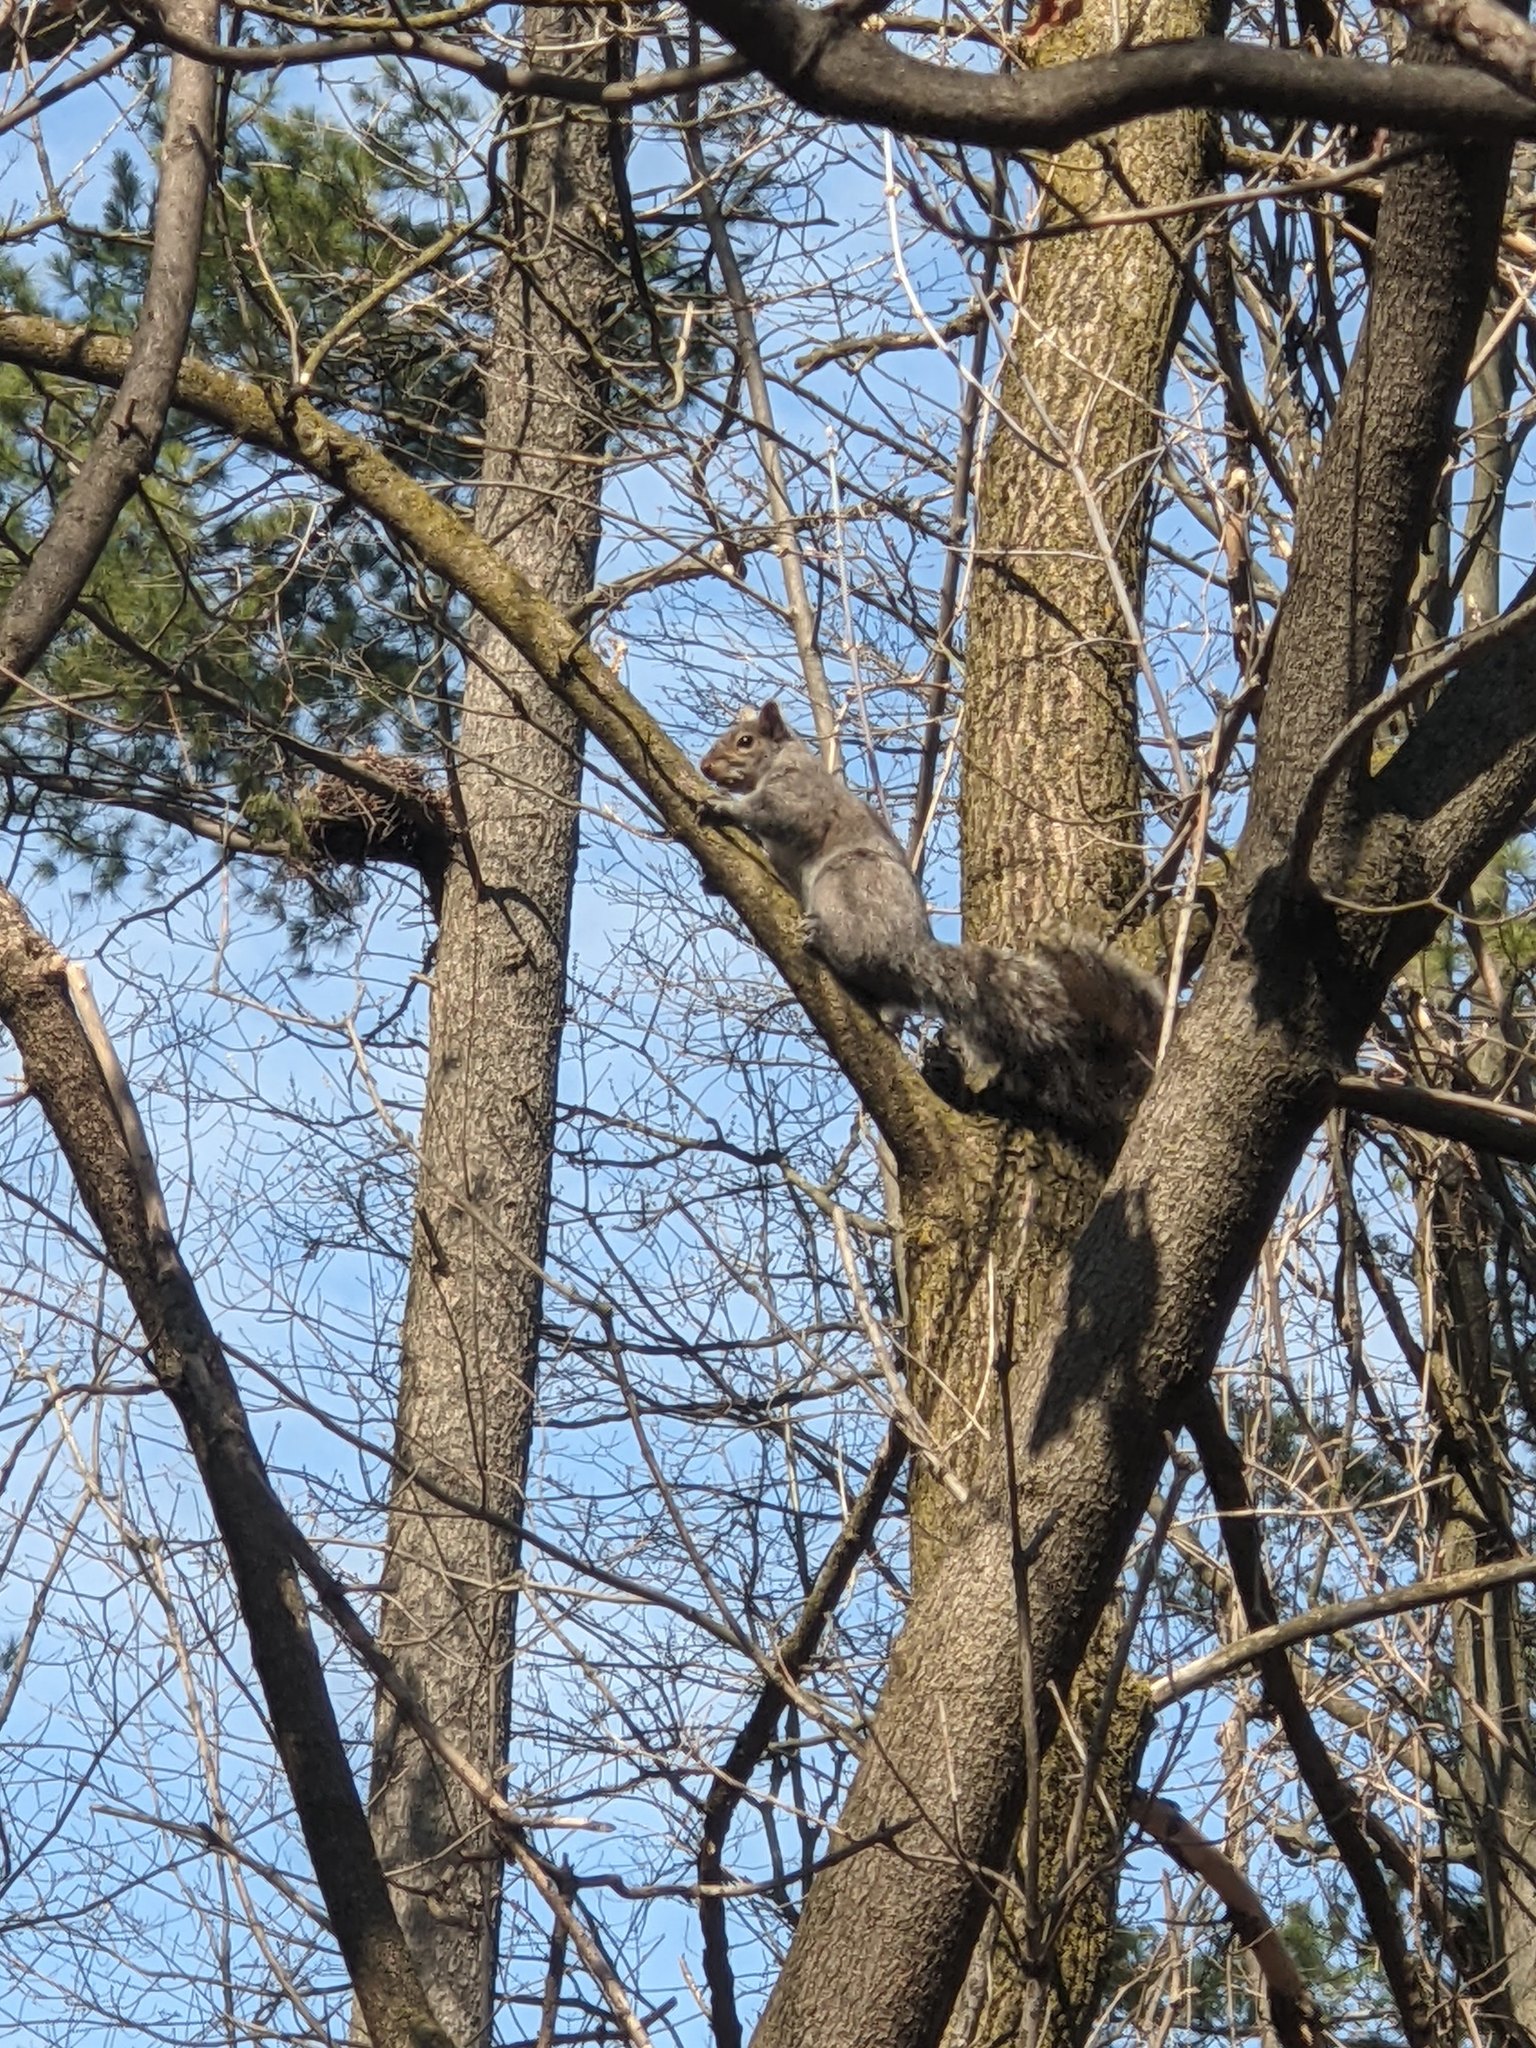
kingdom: Animalia
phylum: Chordata
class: Mammalia
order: Rodentia
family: Sciuridae
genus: Sciurus
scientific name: Sciurus carolinensis
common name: Eastern gray squirrel
